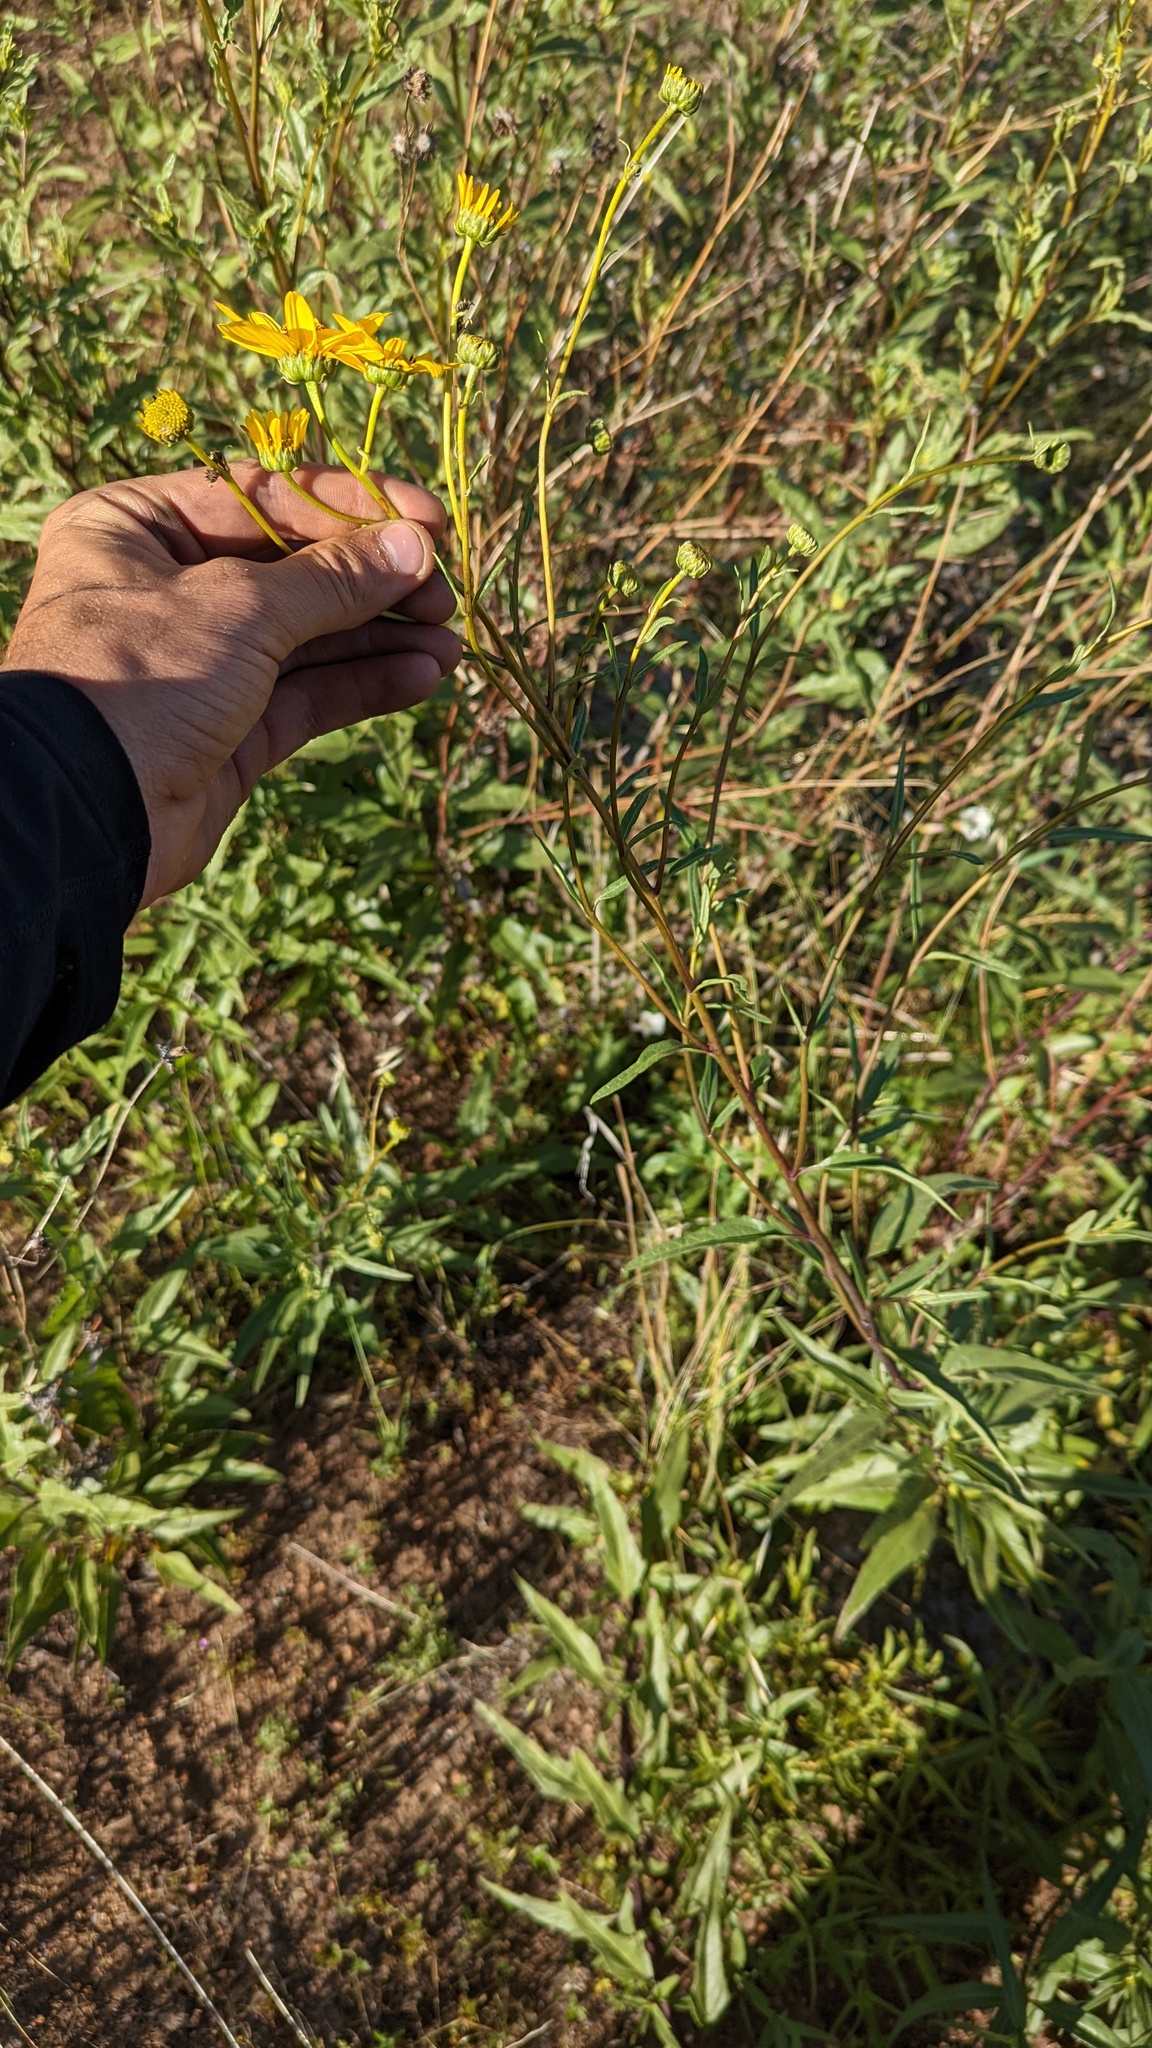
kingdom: Plantae
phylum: Tracheophyta
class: Magnoliopsida
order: Asterales
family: Asteraceae
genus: Helianthus
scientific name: Helianthus gracilentus
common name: Slender sunflower
